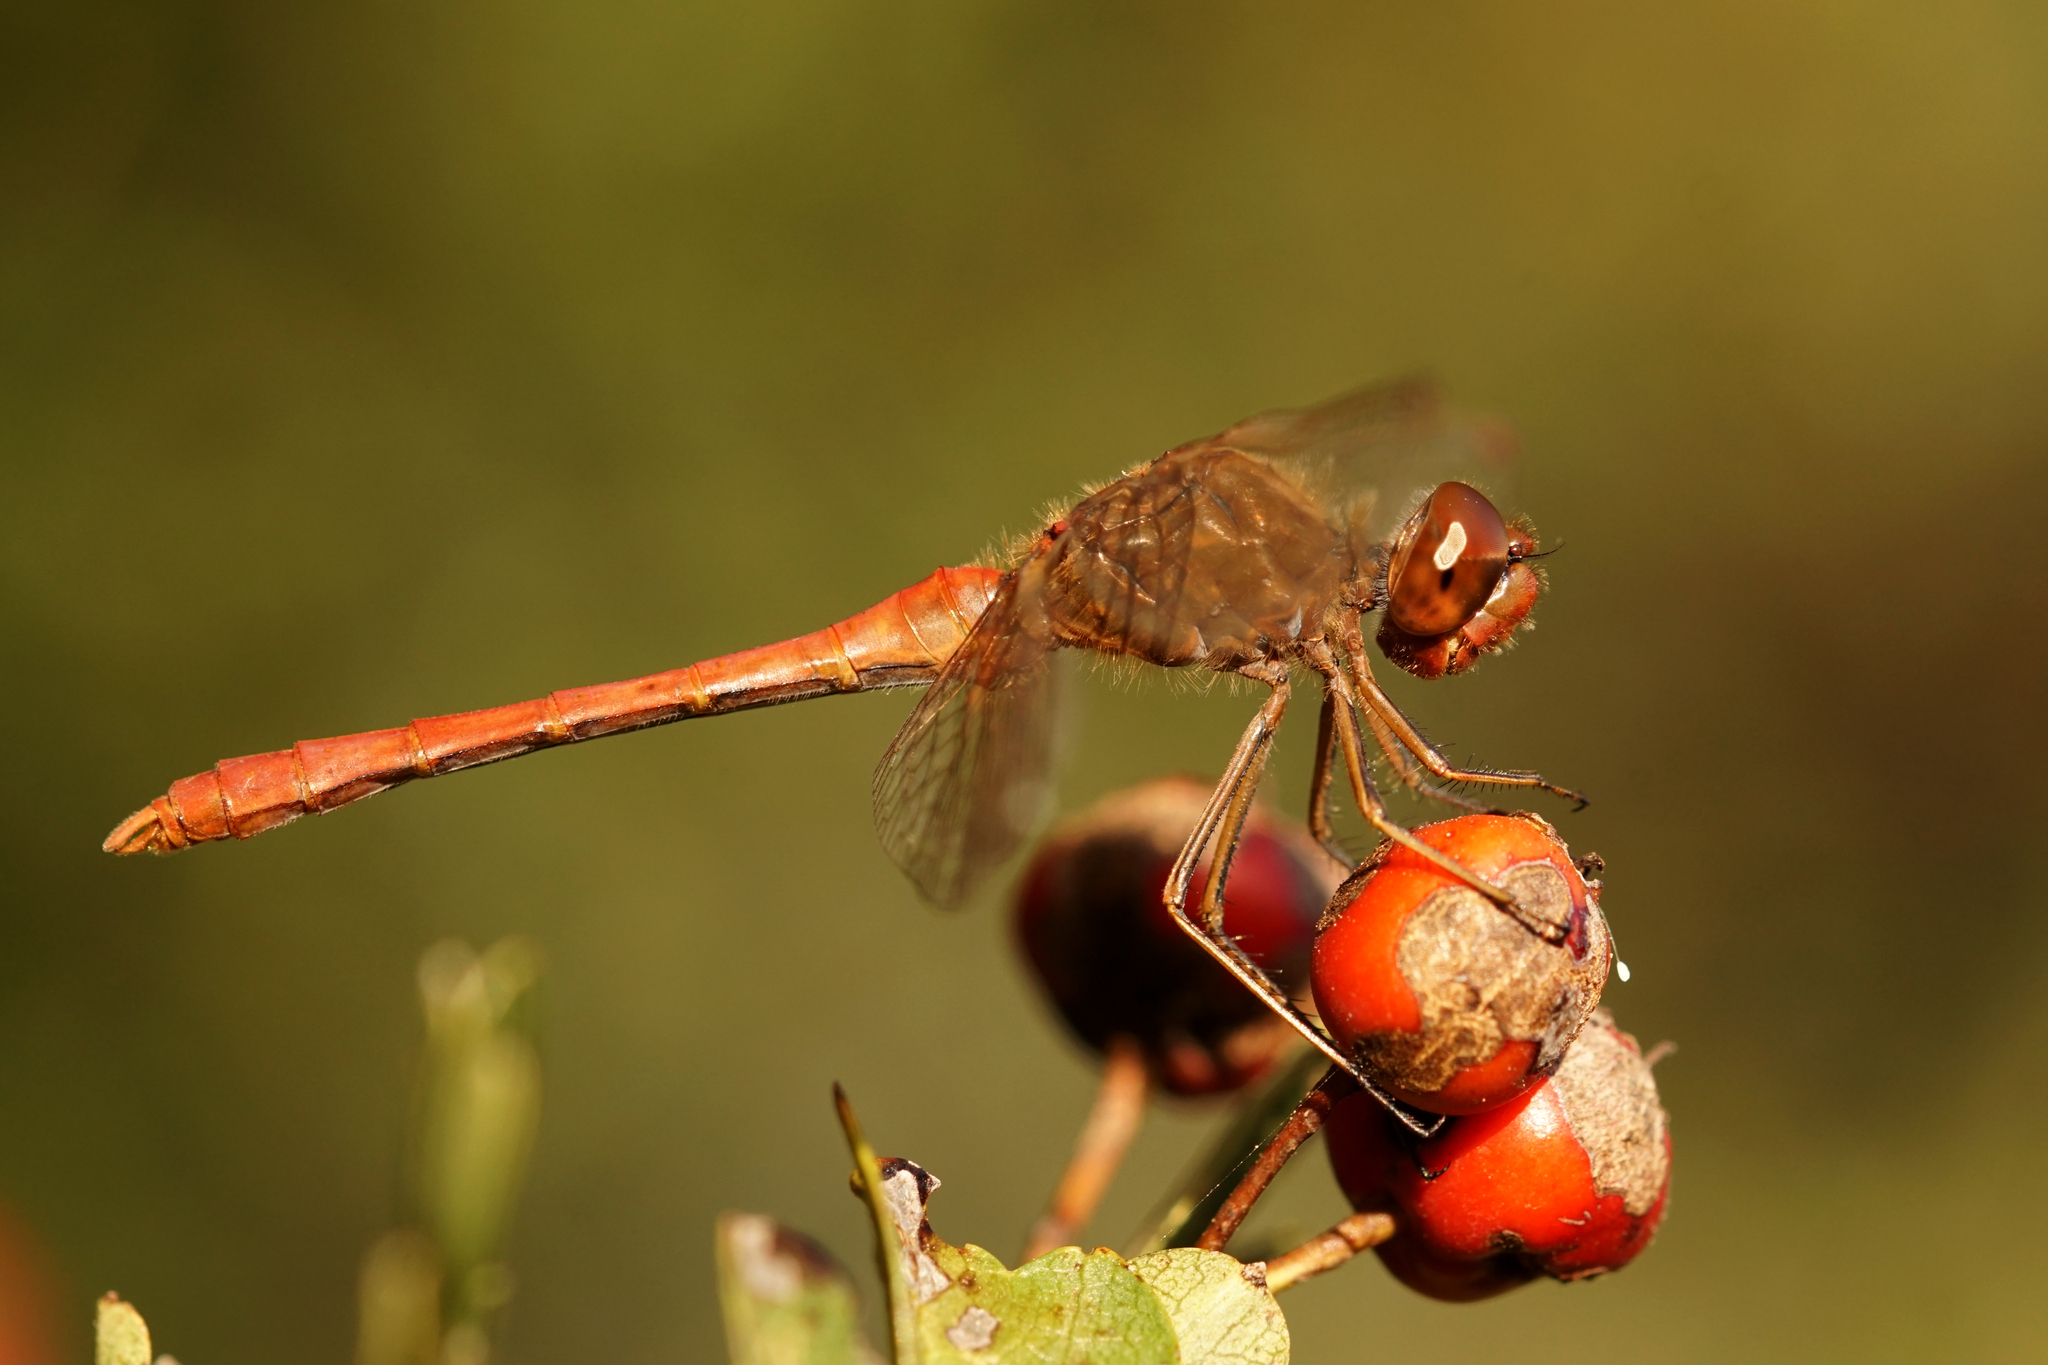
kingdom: Animalia
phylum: Arthropoda
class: Insecta
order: Odonata
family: Libellulidae
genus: Sympetrum
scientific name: Sympetrum meridionale
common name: Southern darter
